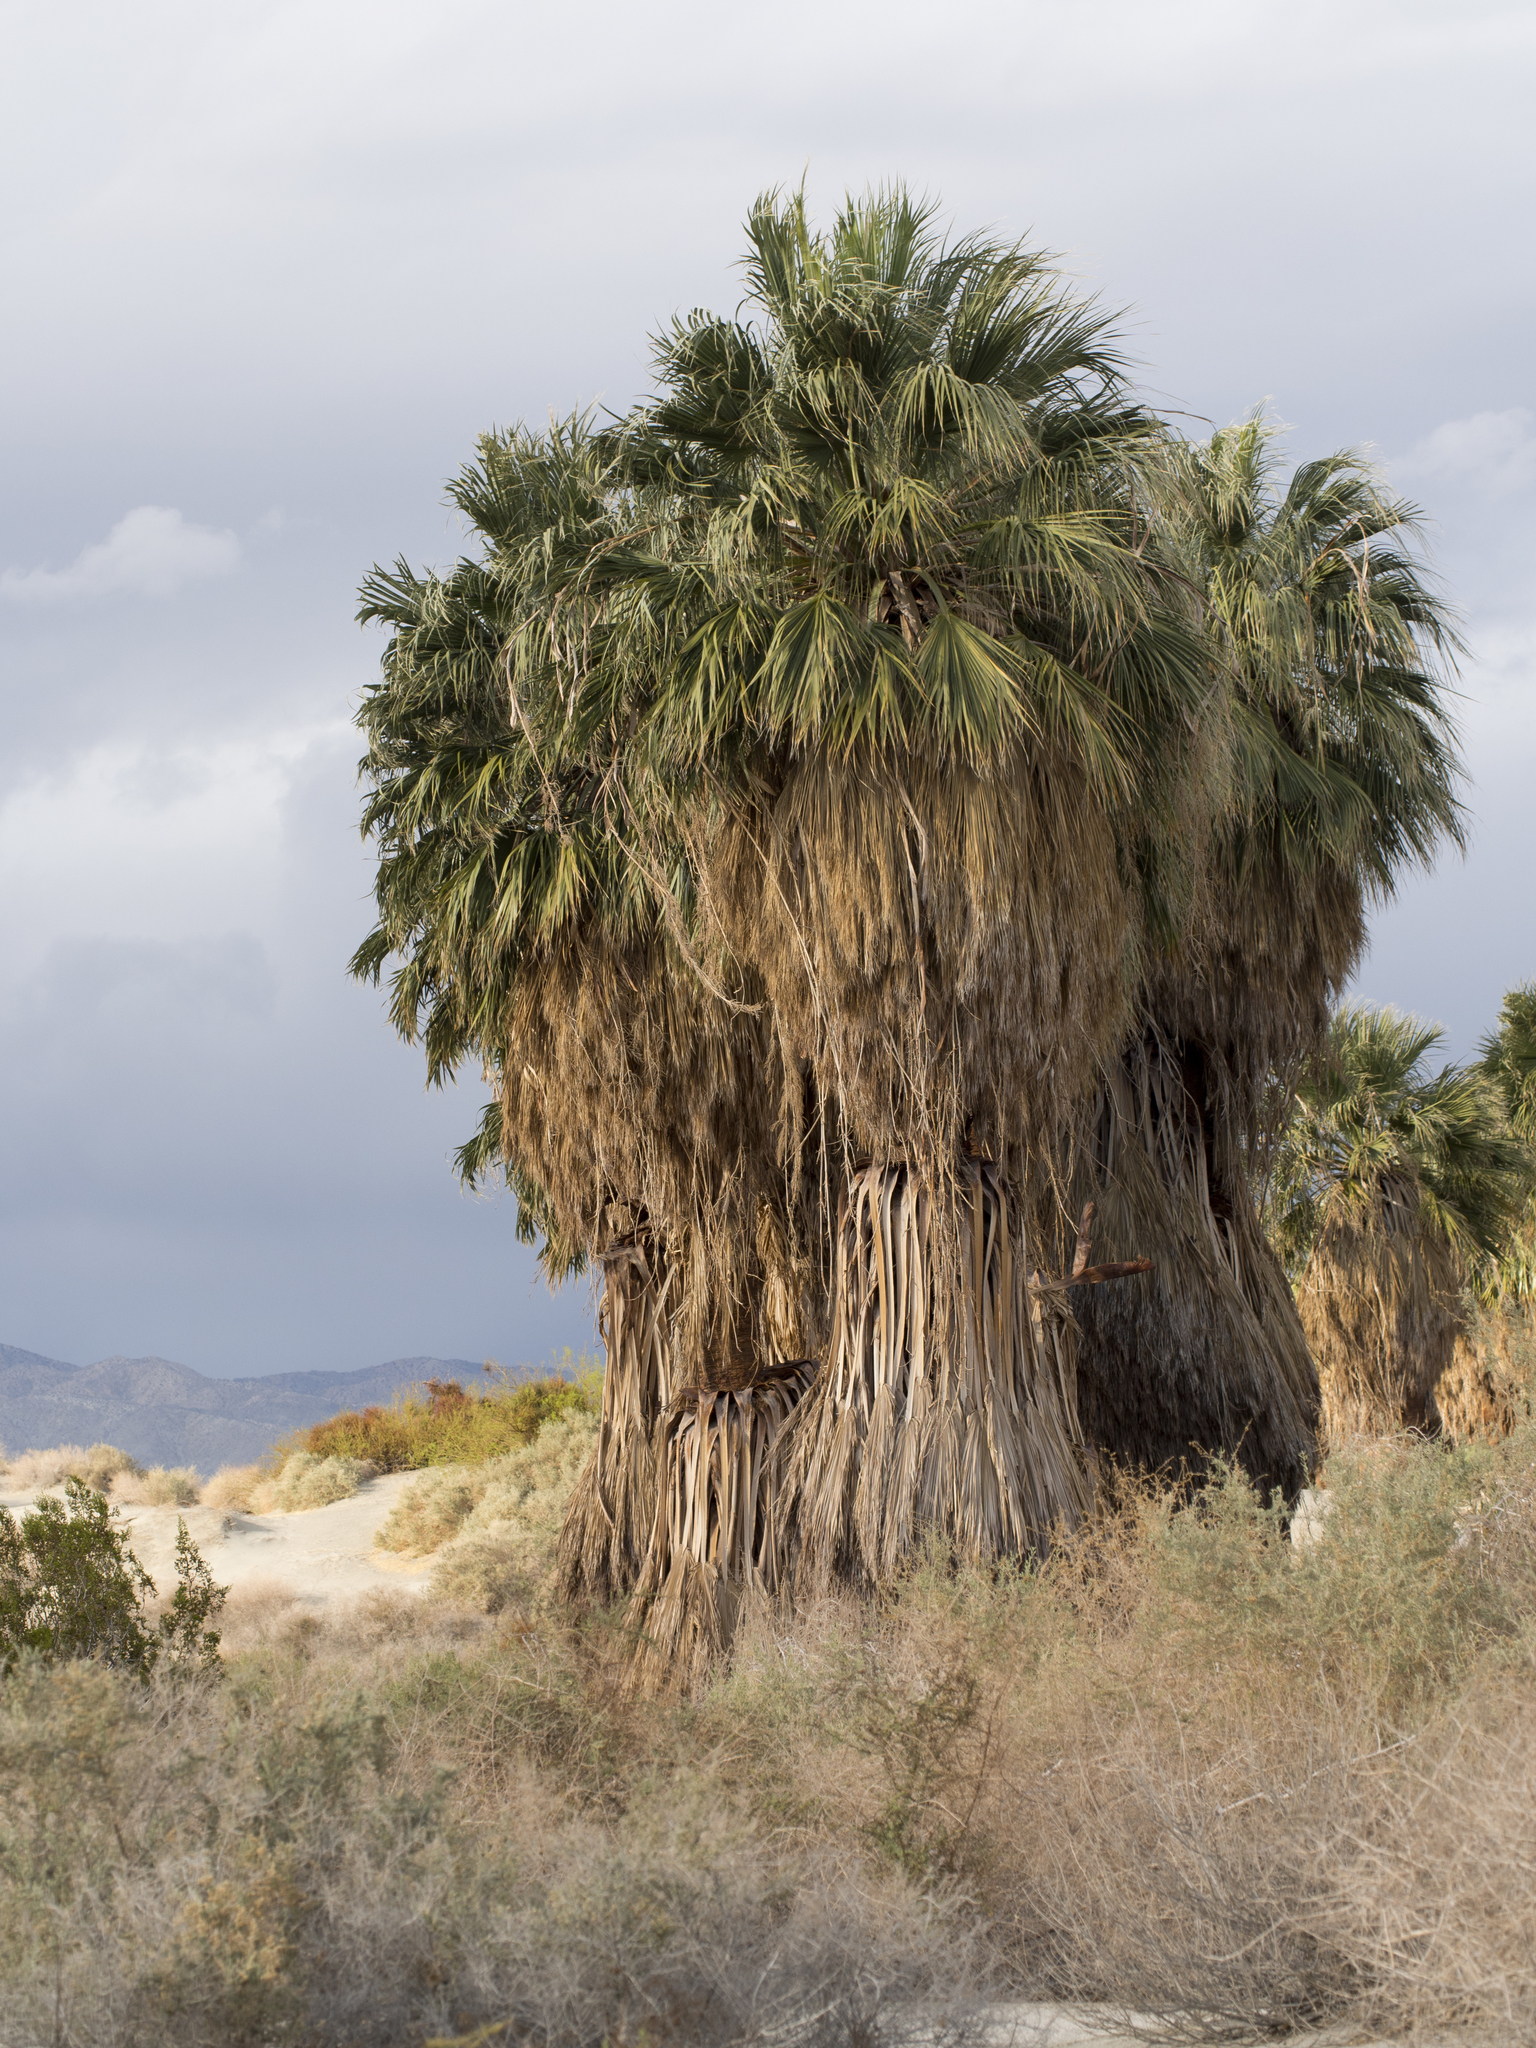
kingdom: Plantae
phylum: Tracheophyta
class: Liliopsida
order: Arecales
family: Arecaceae
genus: Washingtonia
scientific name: Washingtonia filifera
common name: California fan palm
